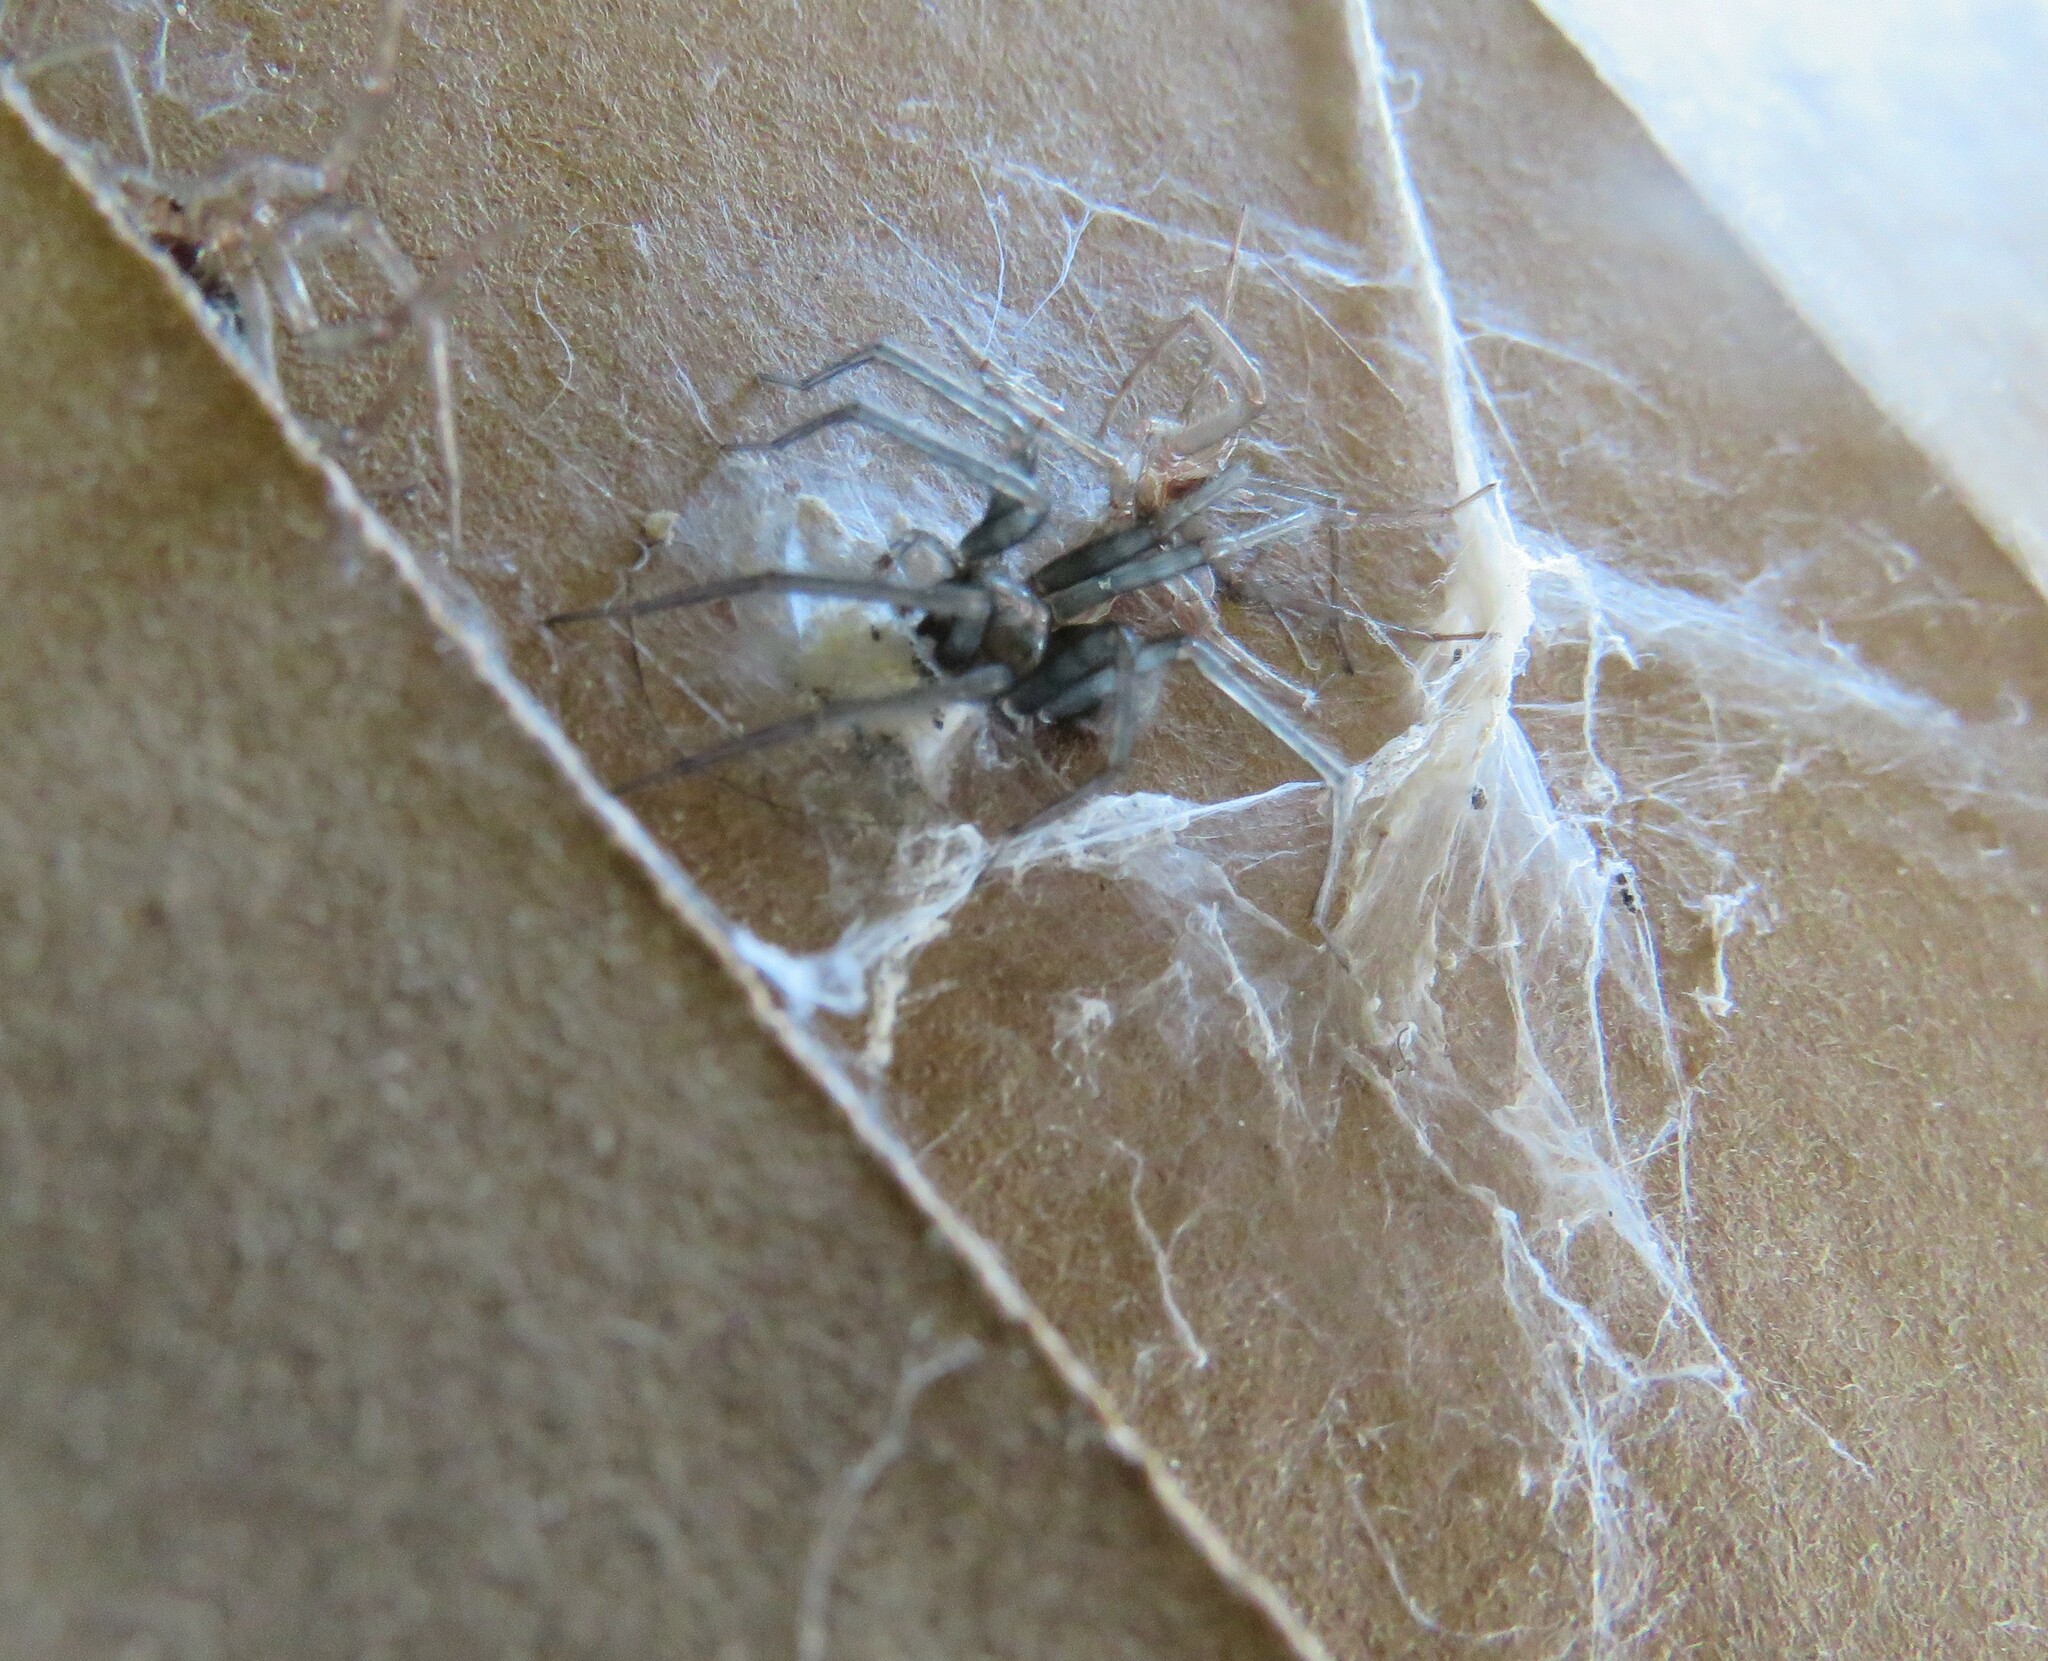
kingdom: Animalia
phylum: Arthropoda
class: Arachnida
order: Araneae
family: Agelenidae
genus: Tegenaria
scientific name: Tegenaria domestica
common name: Barn funnel weaver
